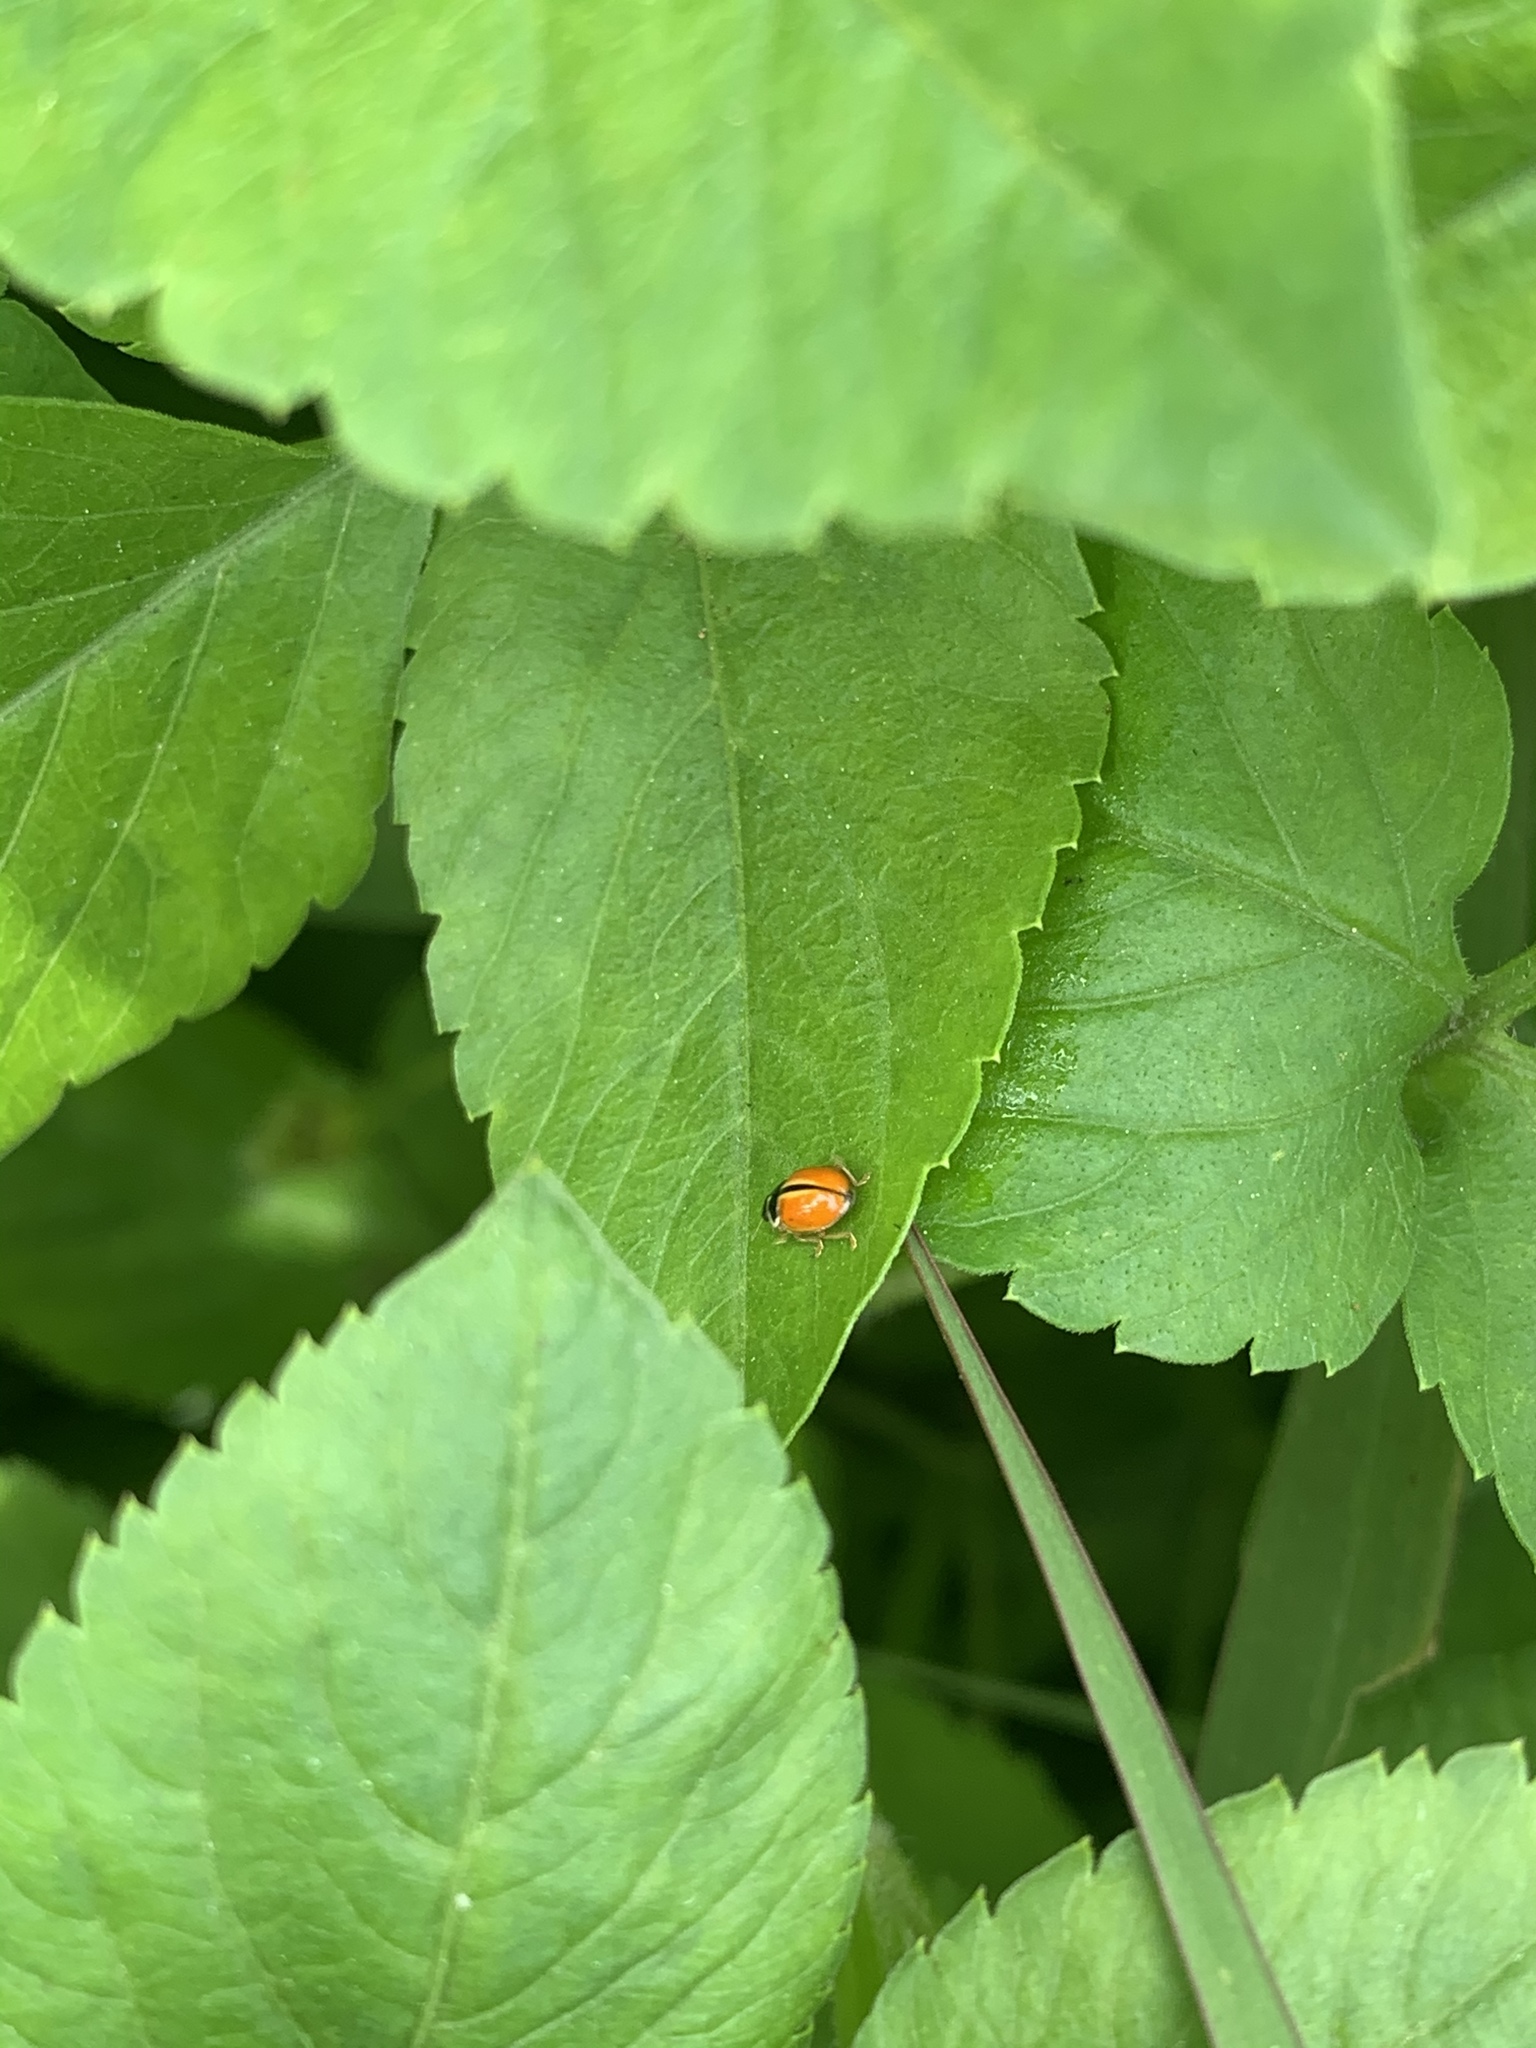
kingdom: Animalia
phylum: Arthropoda
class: Insecta
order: Coleoptera
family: Coccinellidae
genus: Propylea
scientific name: Propylea japonica
